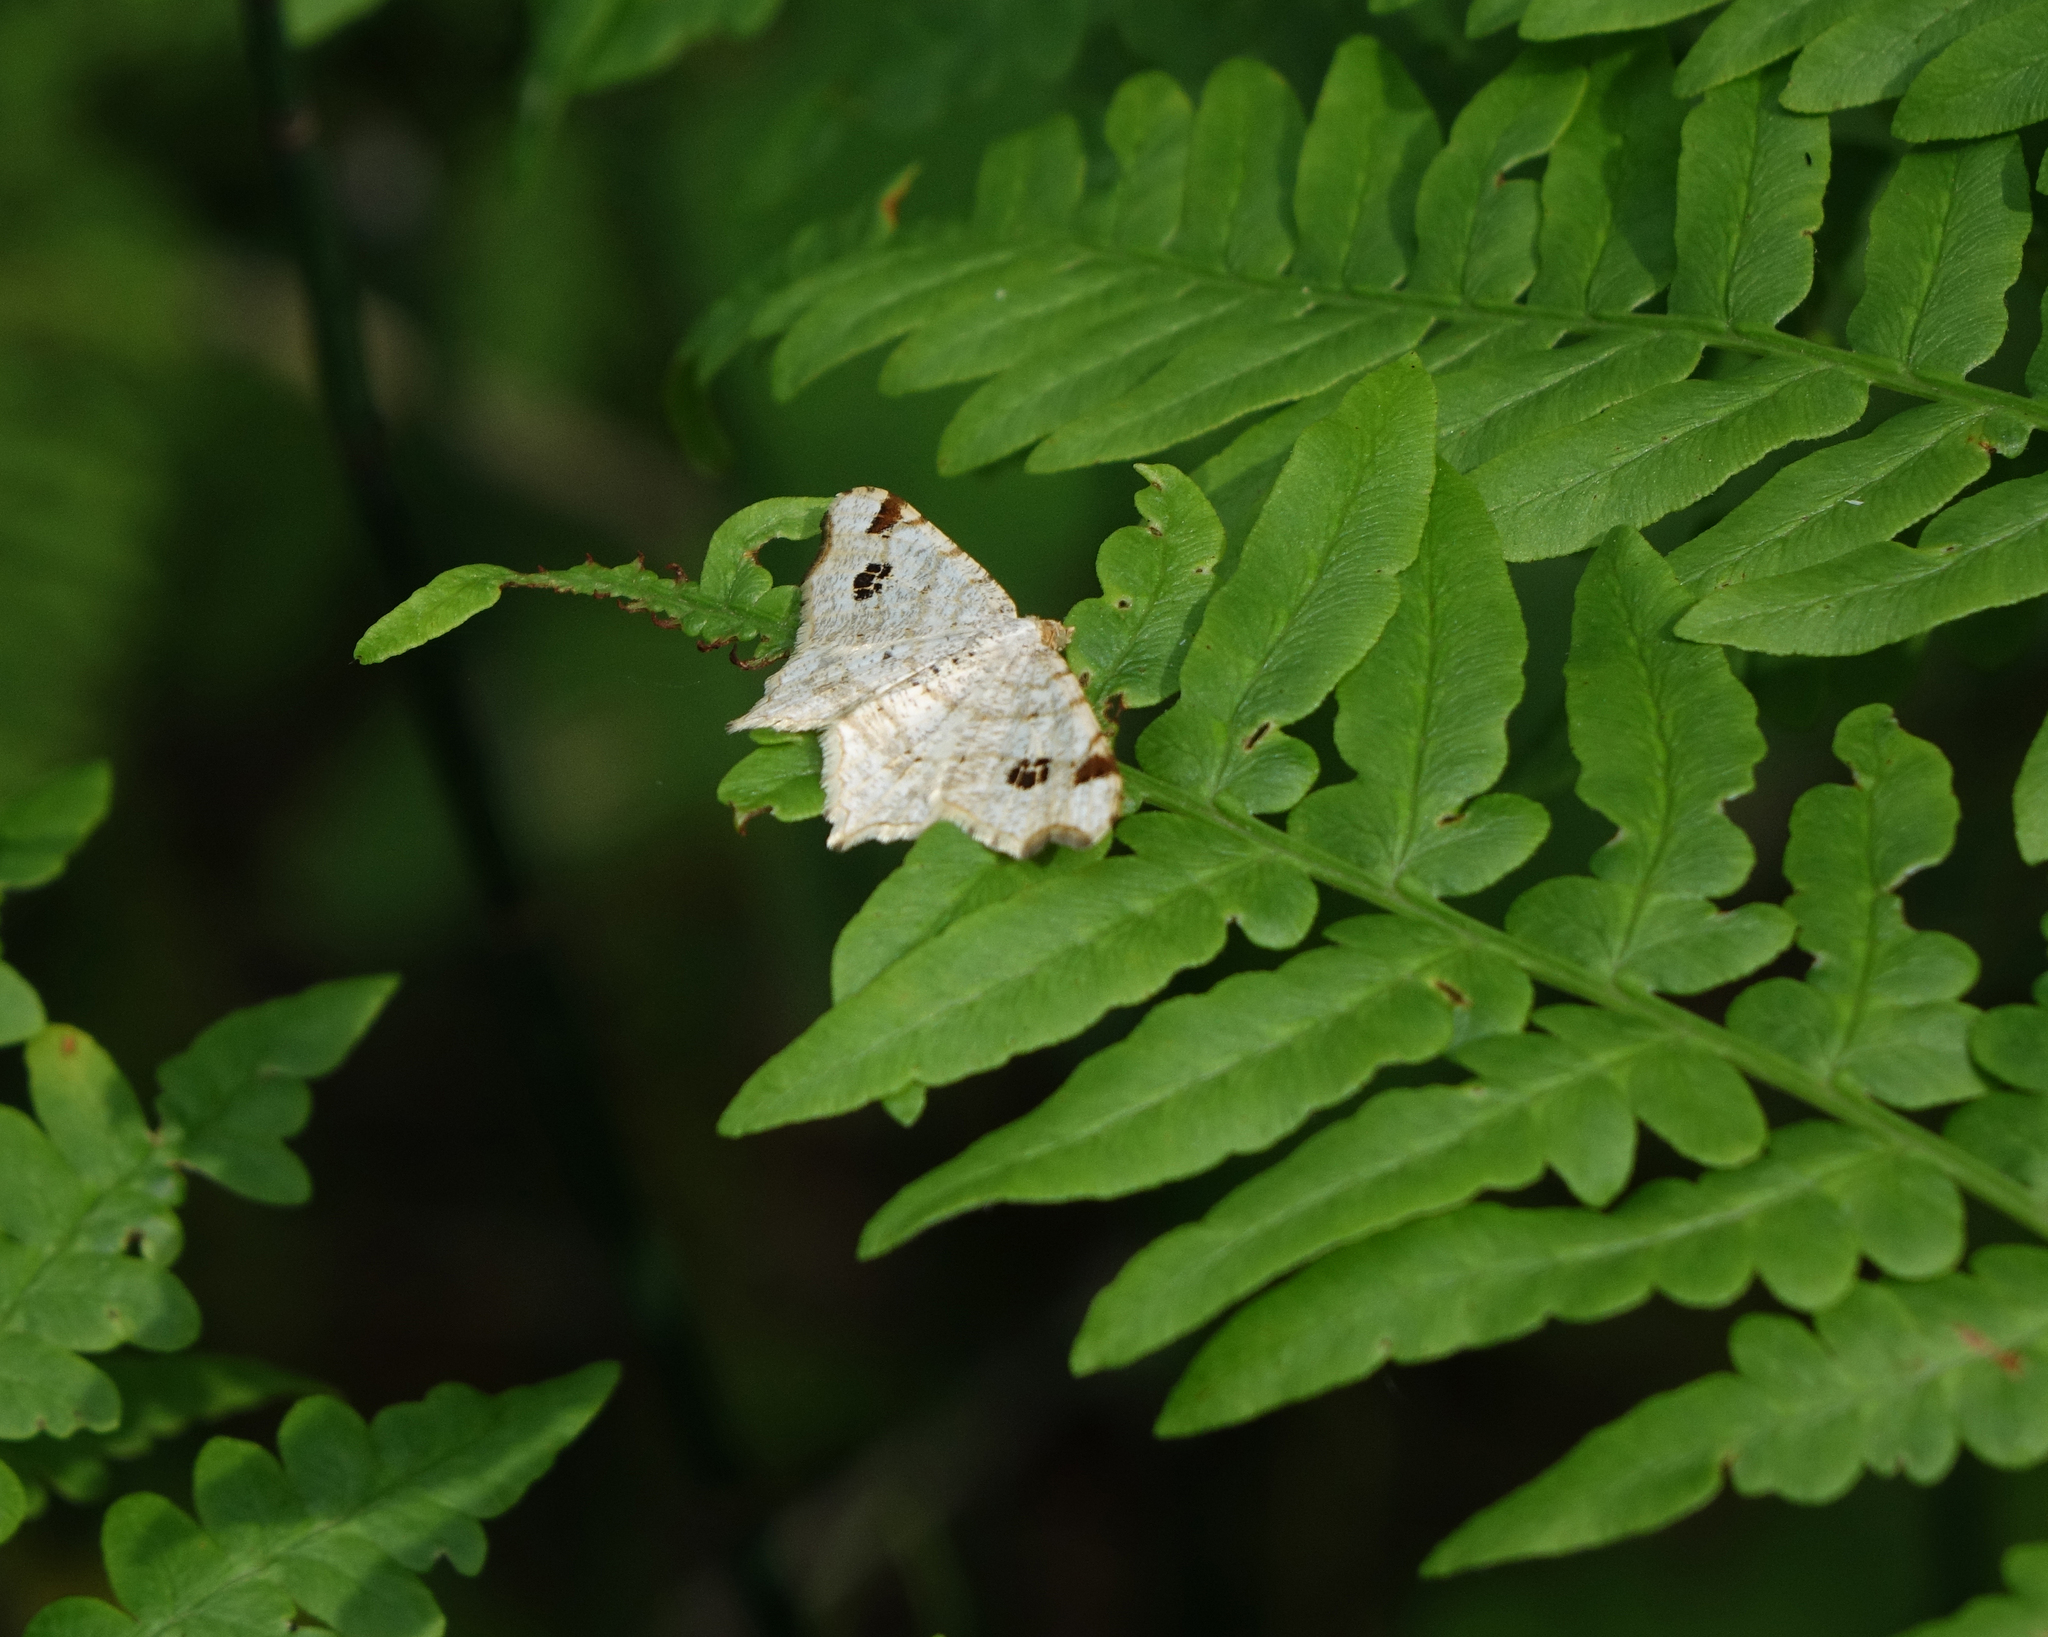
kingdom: Animalia
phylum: Arthropoda
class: Insecta
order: Lepidoptera
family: Geometridae
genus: Macaria
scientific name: Macaria notata
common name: Peacock moth
